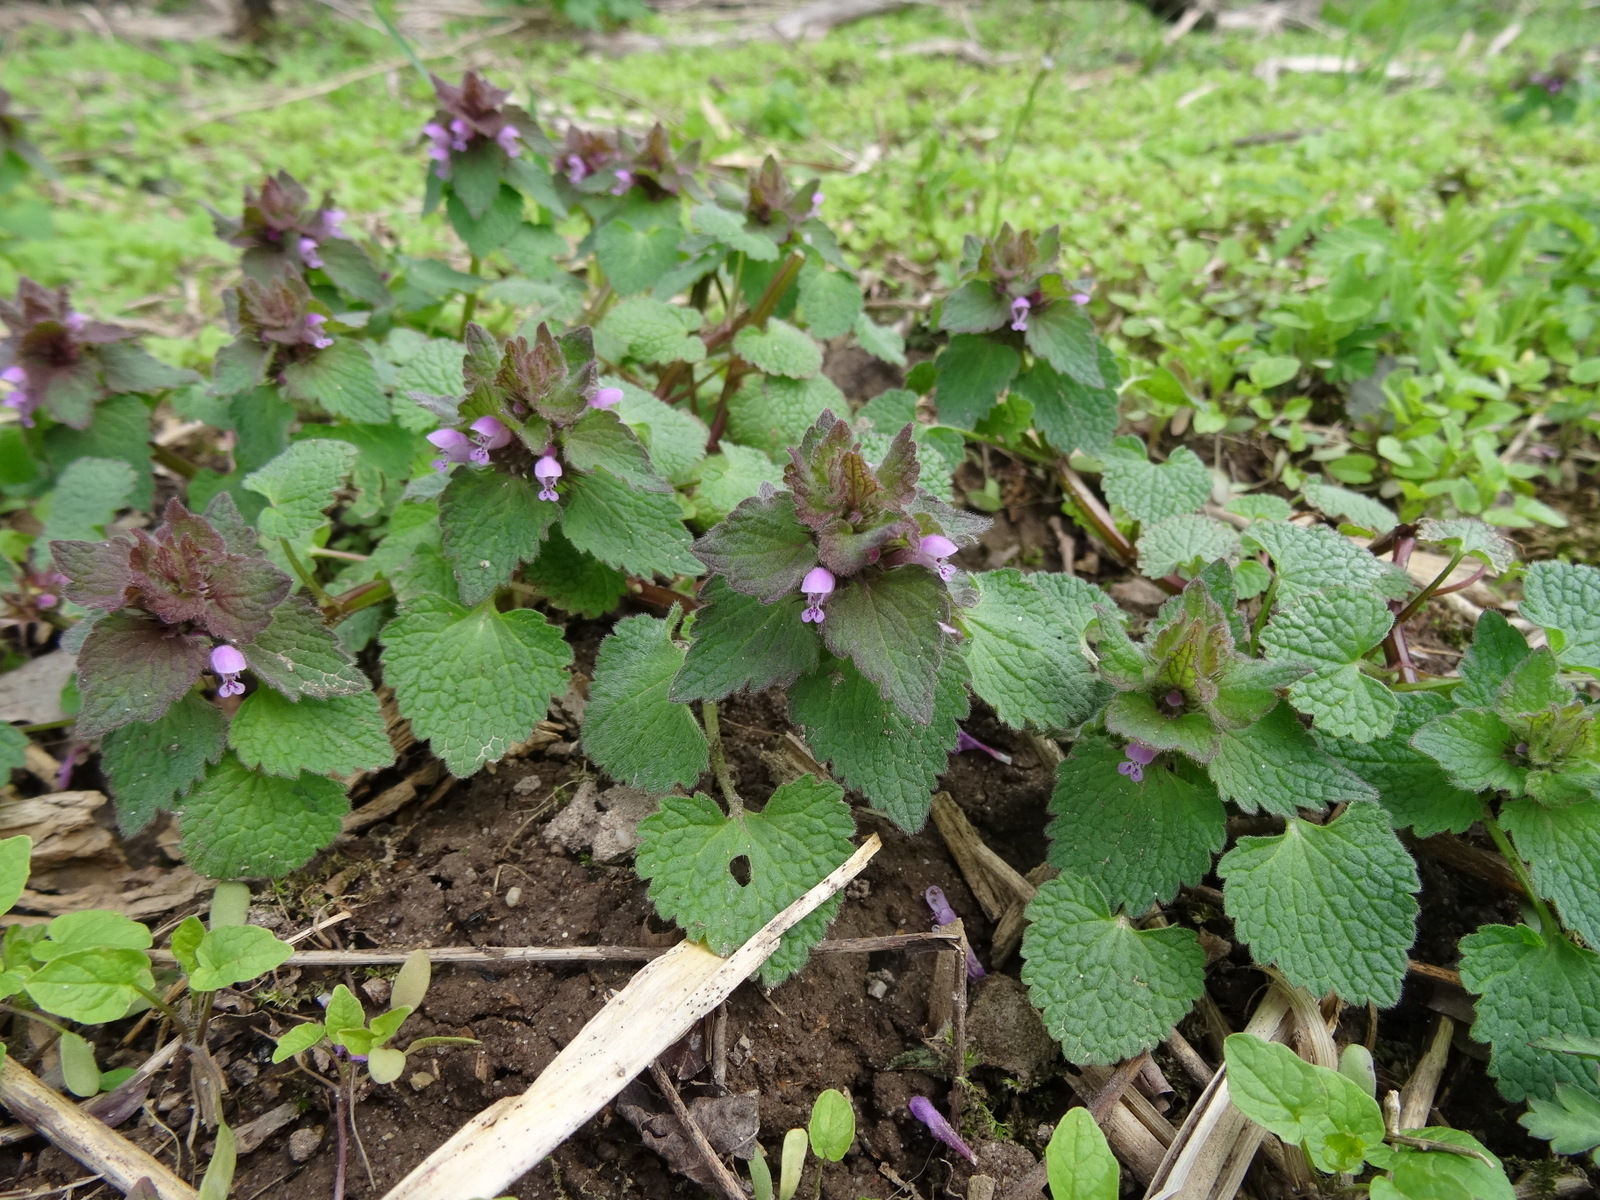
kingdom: Plantae
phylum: Tracheophyta
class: Magnoliopsida
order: Lamiales
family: Lamiaceae
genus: Lamium
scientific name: Lamium purpureum
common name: Red dead-nettle
